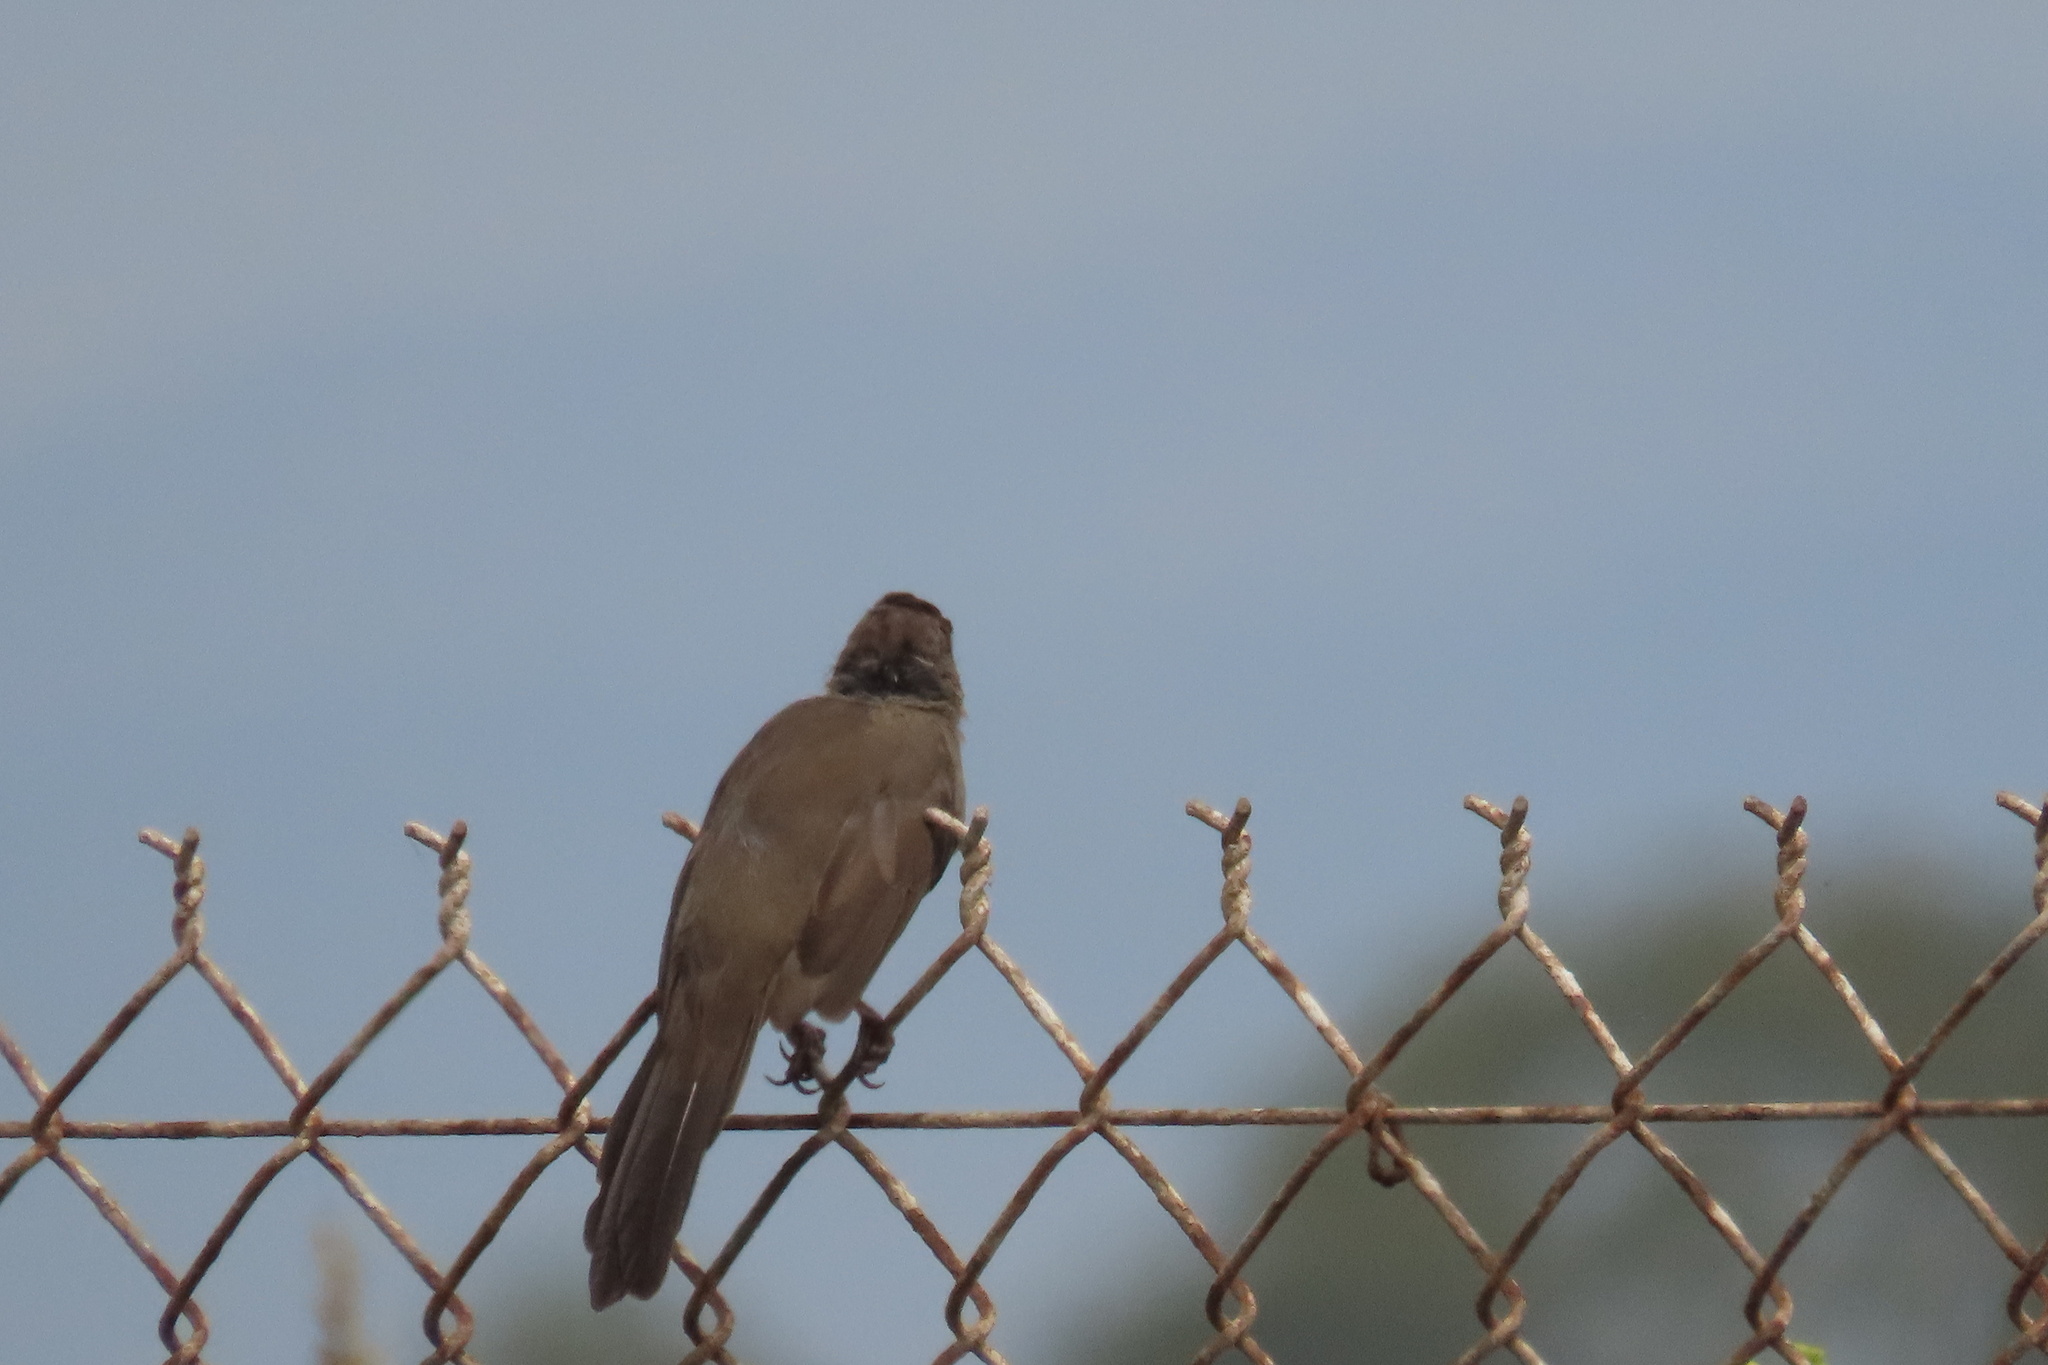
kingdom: Animalia
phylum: Chordata
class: Aves
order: Passeriformes
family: Passerellidae
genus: Melozone
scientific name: Melozone crissalis
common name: California towhee
